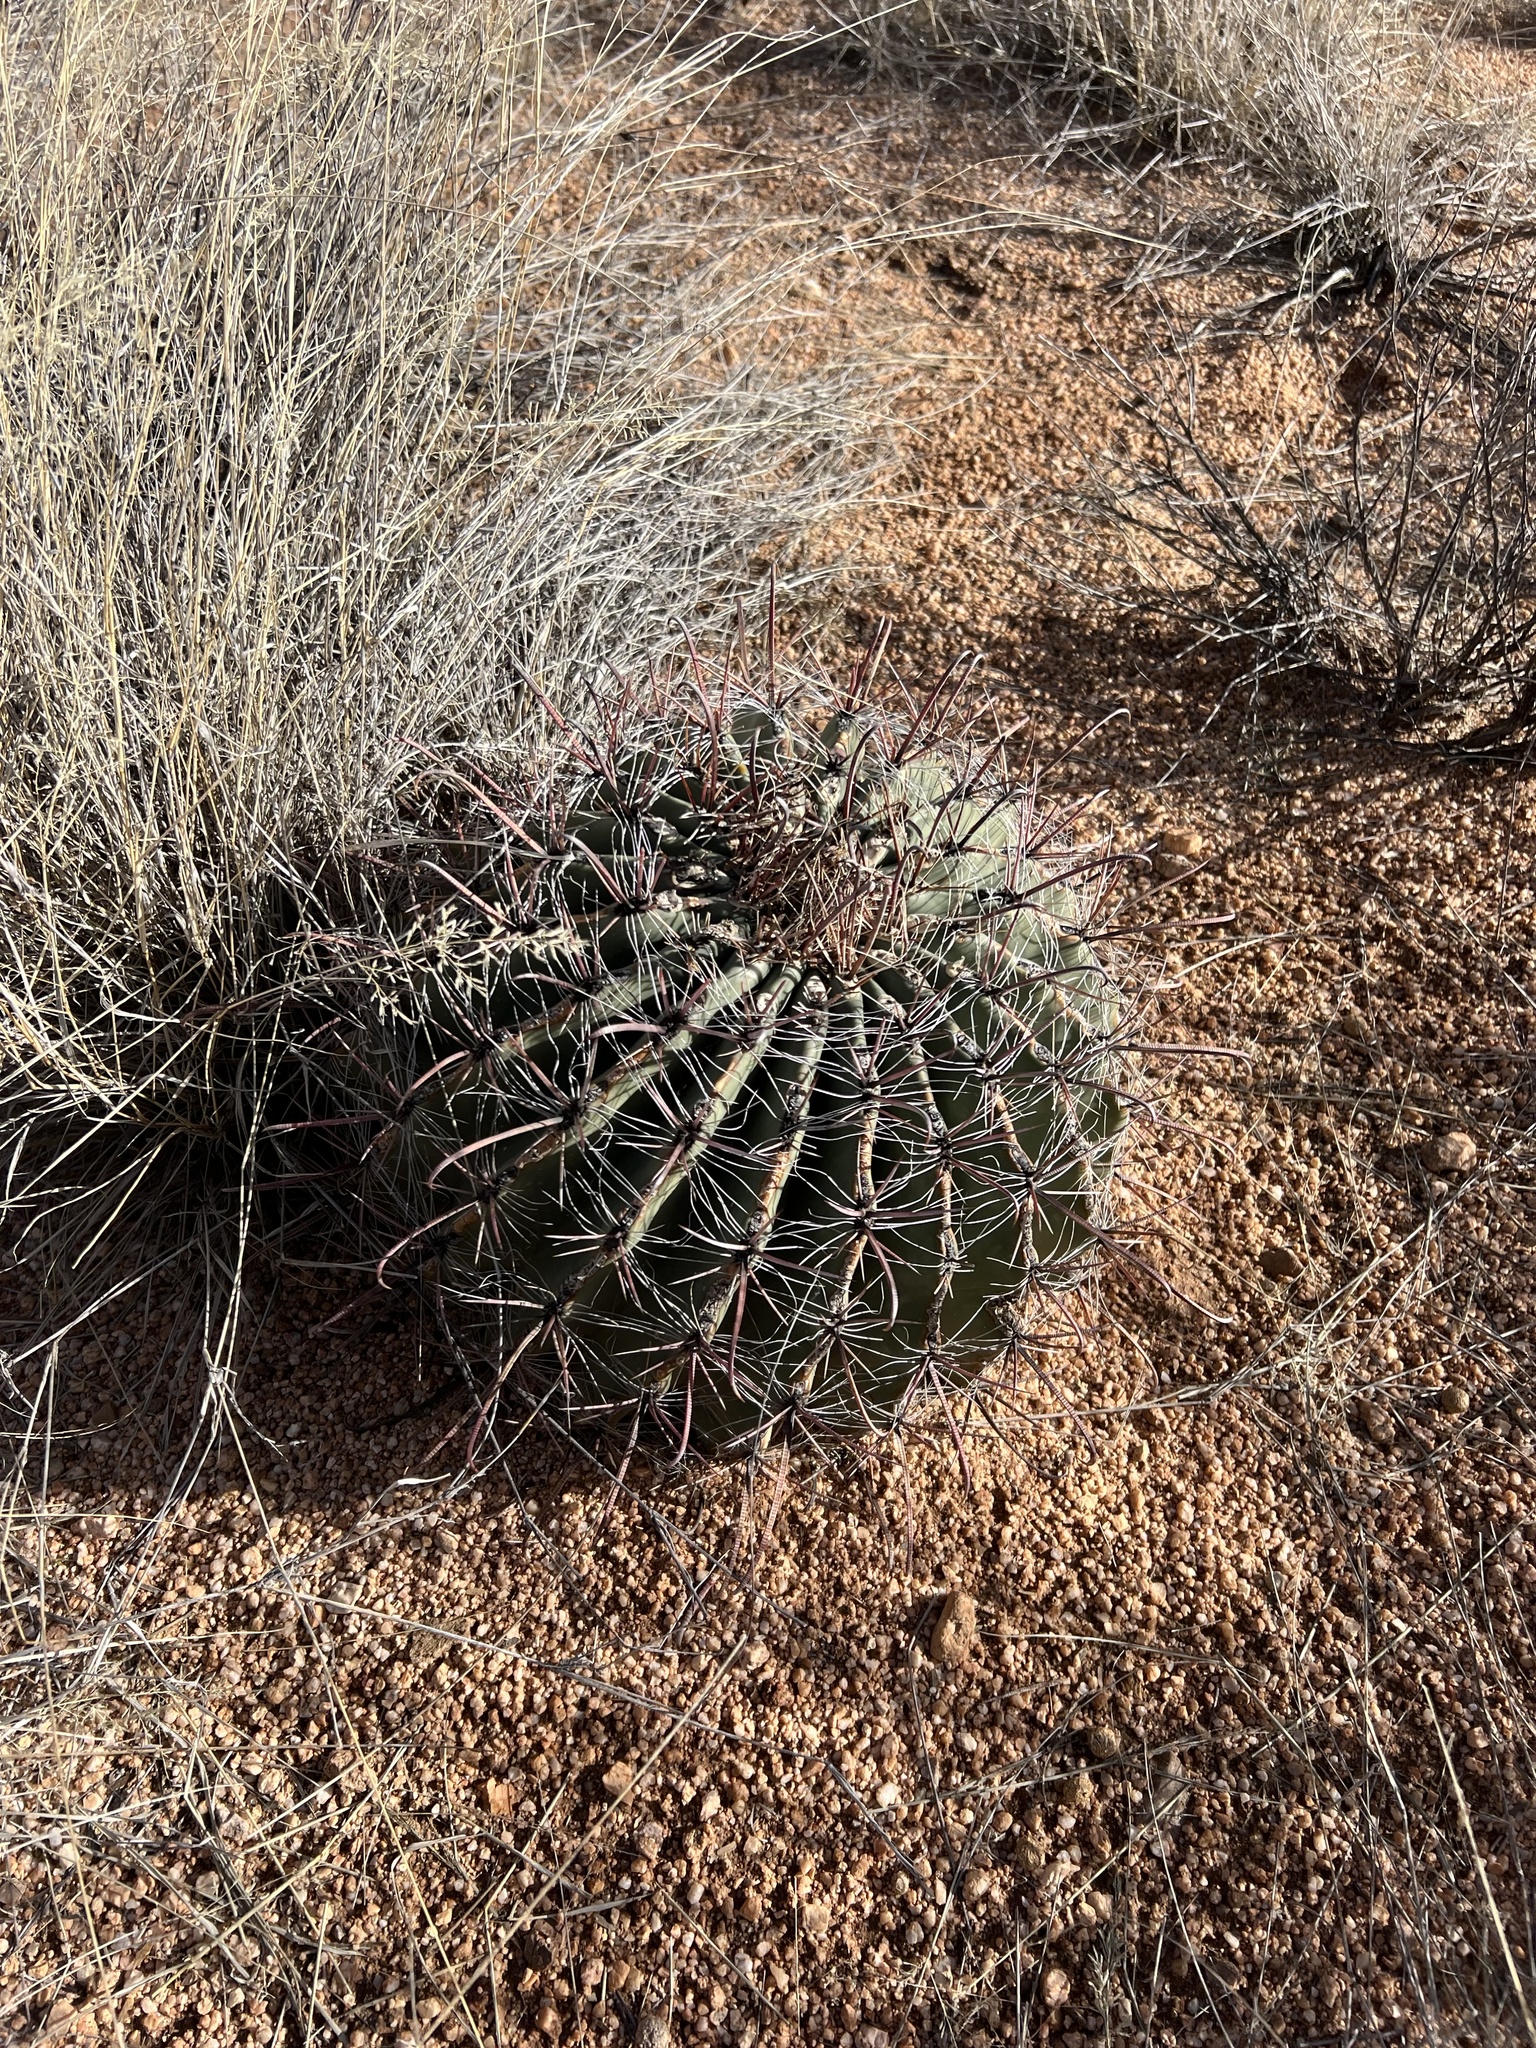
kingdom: Plantae
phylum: Tracheophyta
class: Magnoliopsida
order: Caryophyllales
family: Cactaceae
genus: Ferocactus
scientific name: Ferocactus wislizeni
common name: Candy barrel cactus
